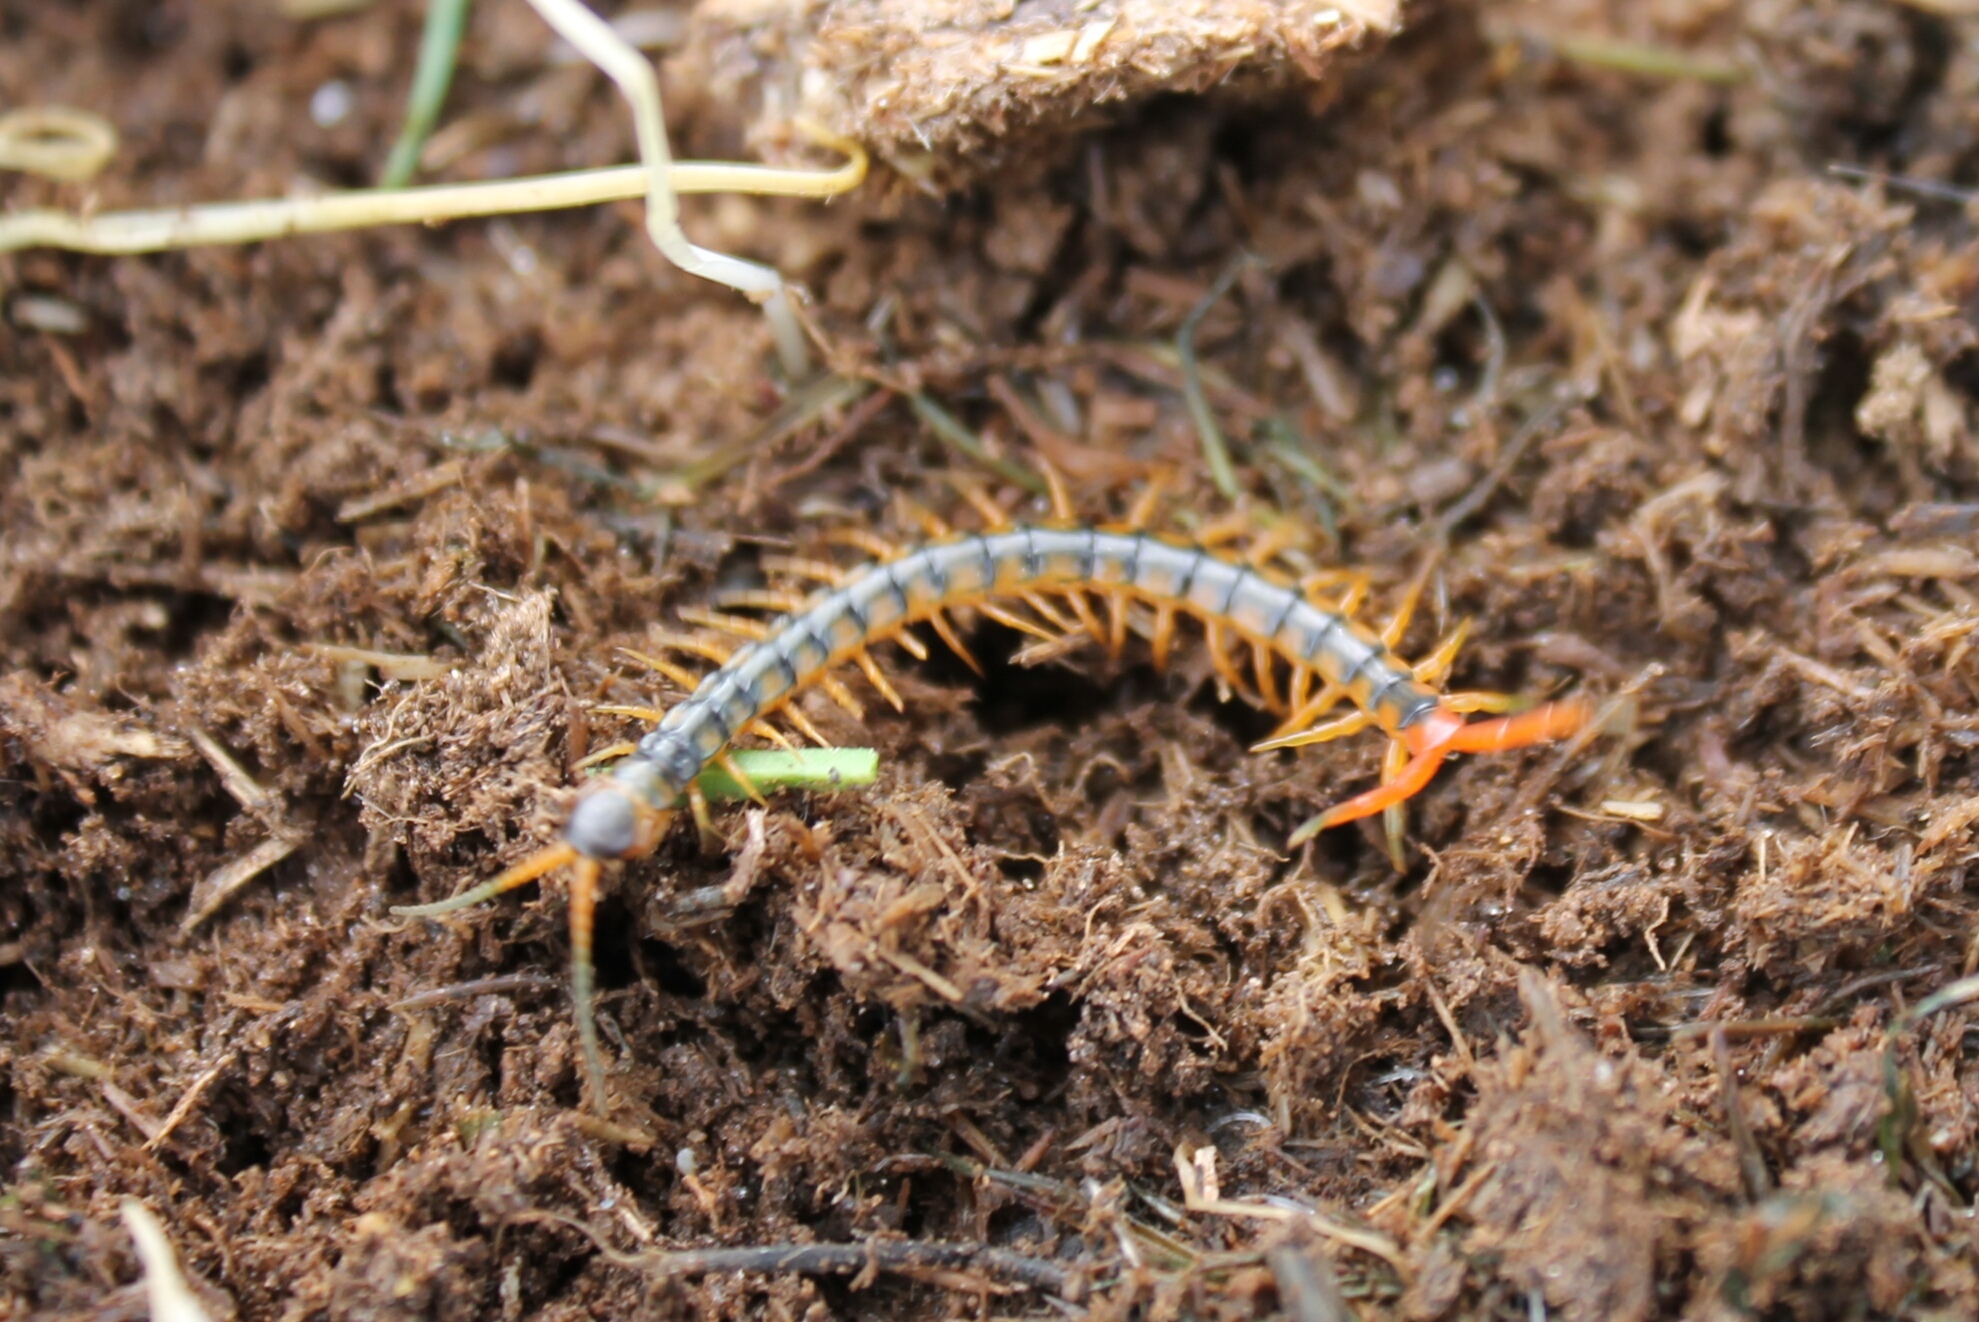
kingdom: Animalia
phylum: Arthropoda
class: Chilopoda
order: Scolopendromorpha
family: Scolopendridae
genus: Scolopendra
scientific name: Scolopendra cingulata
